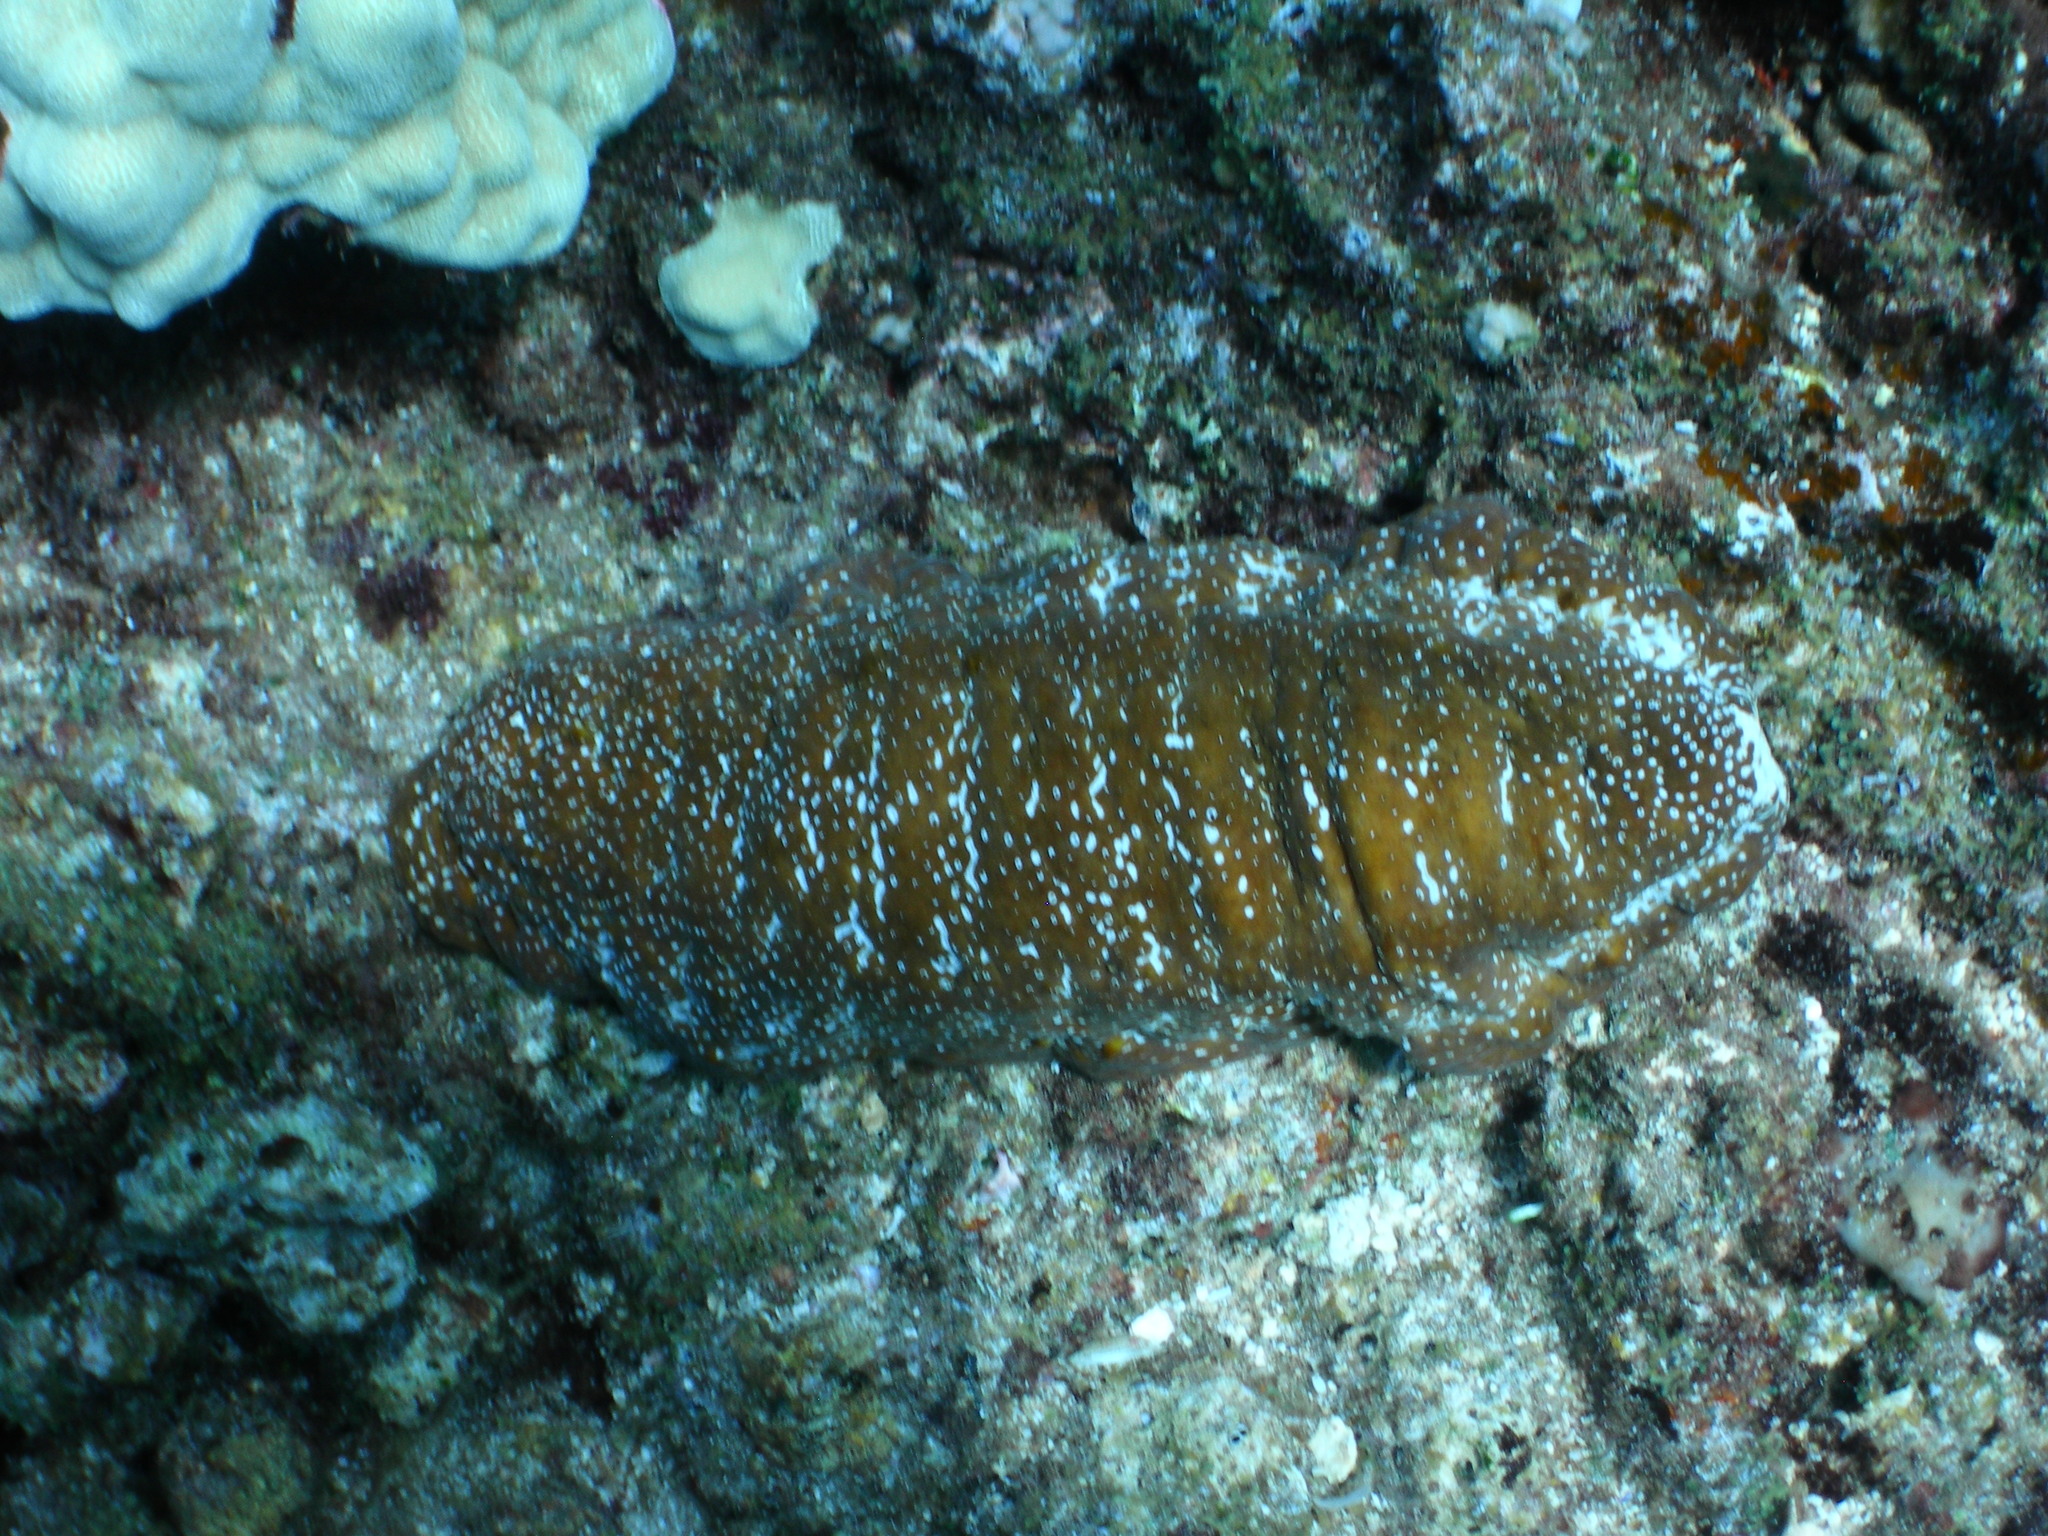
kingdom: Animalia
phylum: Echinodermata
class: Holothuroidea
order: Holothuriida
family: Holothuriidae
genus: Actinopyga
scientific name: Actinopyga varians
